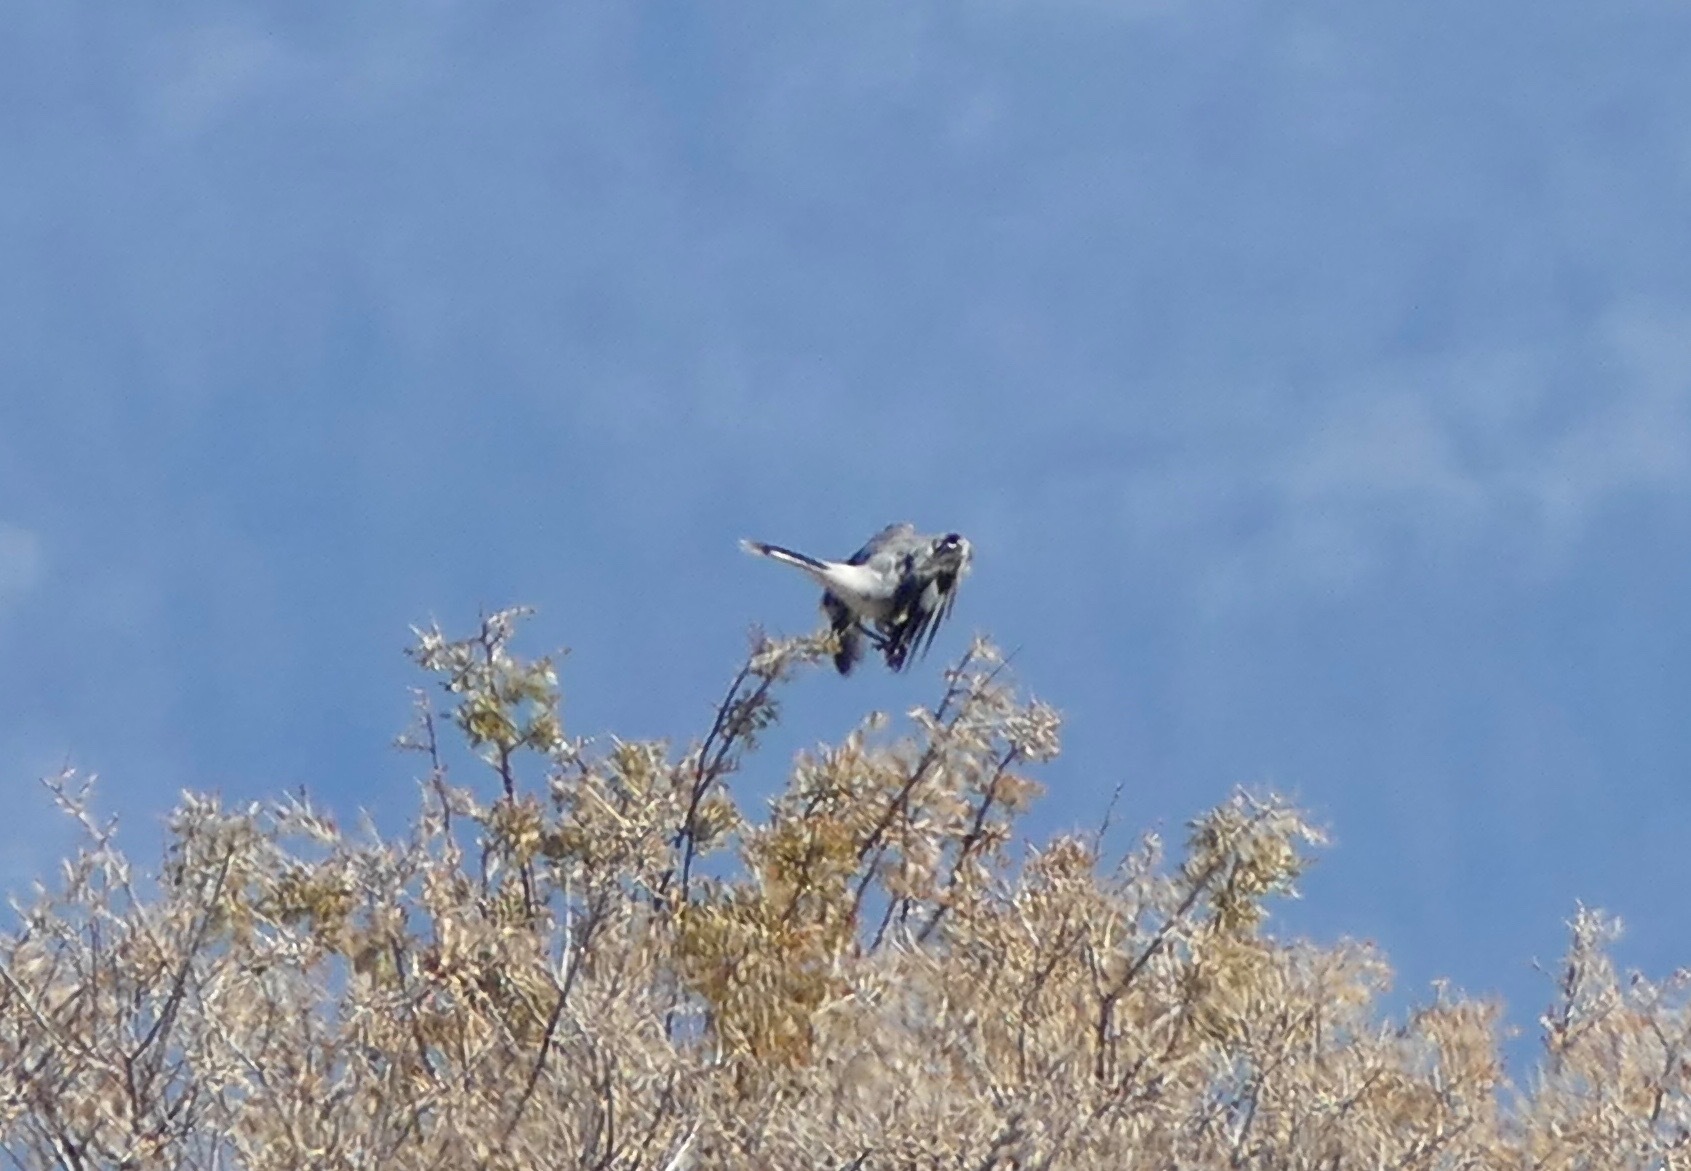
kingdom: Animalia
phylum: Chordata
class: Aves
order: Passeriformes
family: Laniidae
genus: Lanius
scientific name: Lanius ludovicianus
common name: Loggerhead shrike
